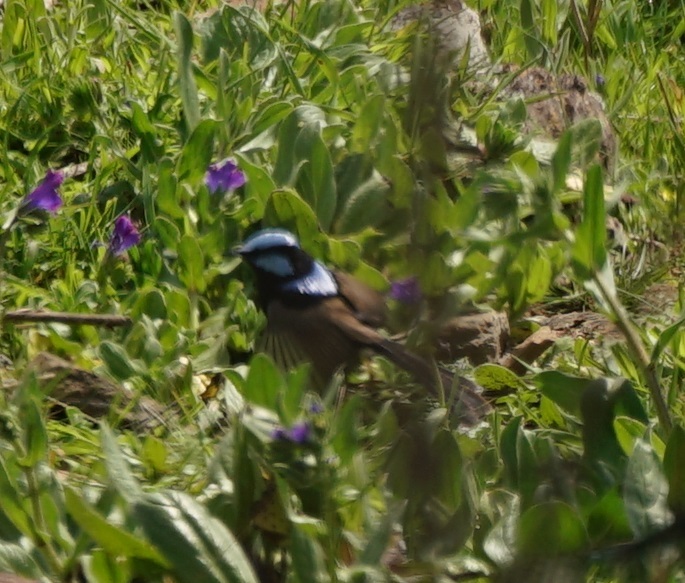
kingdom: Animalia
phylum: Chordata
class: Aves
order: Passeriformes
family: Maluridae
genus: Malurus
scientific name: Malurus cyaneus
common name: Superb fairywren
